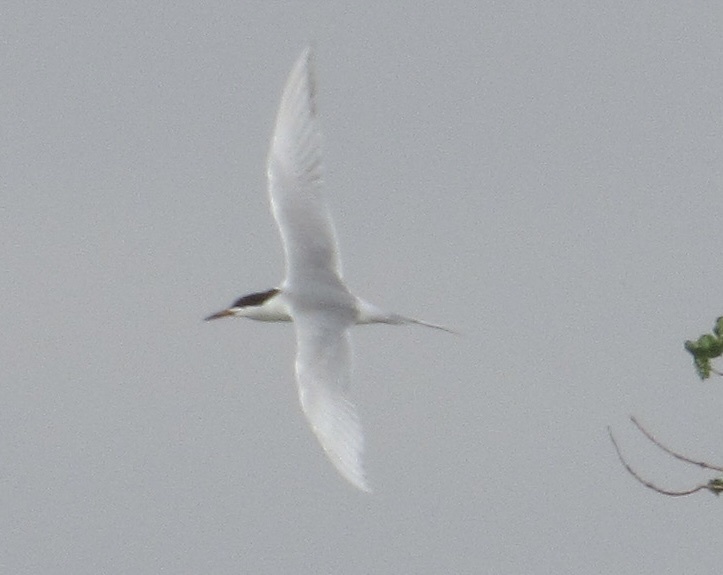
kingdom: Animalia
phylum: Chordata
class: Aves
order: Charadriiformes
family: Laridae
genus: Sterna
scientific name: Sterna forsteri
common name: Forster's tern
